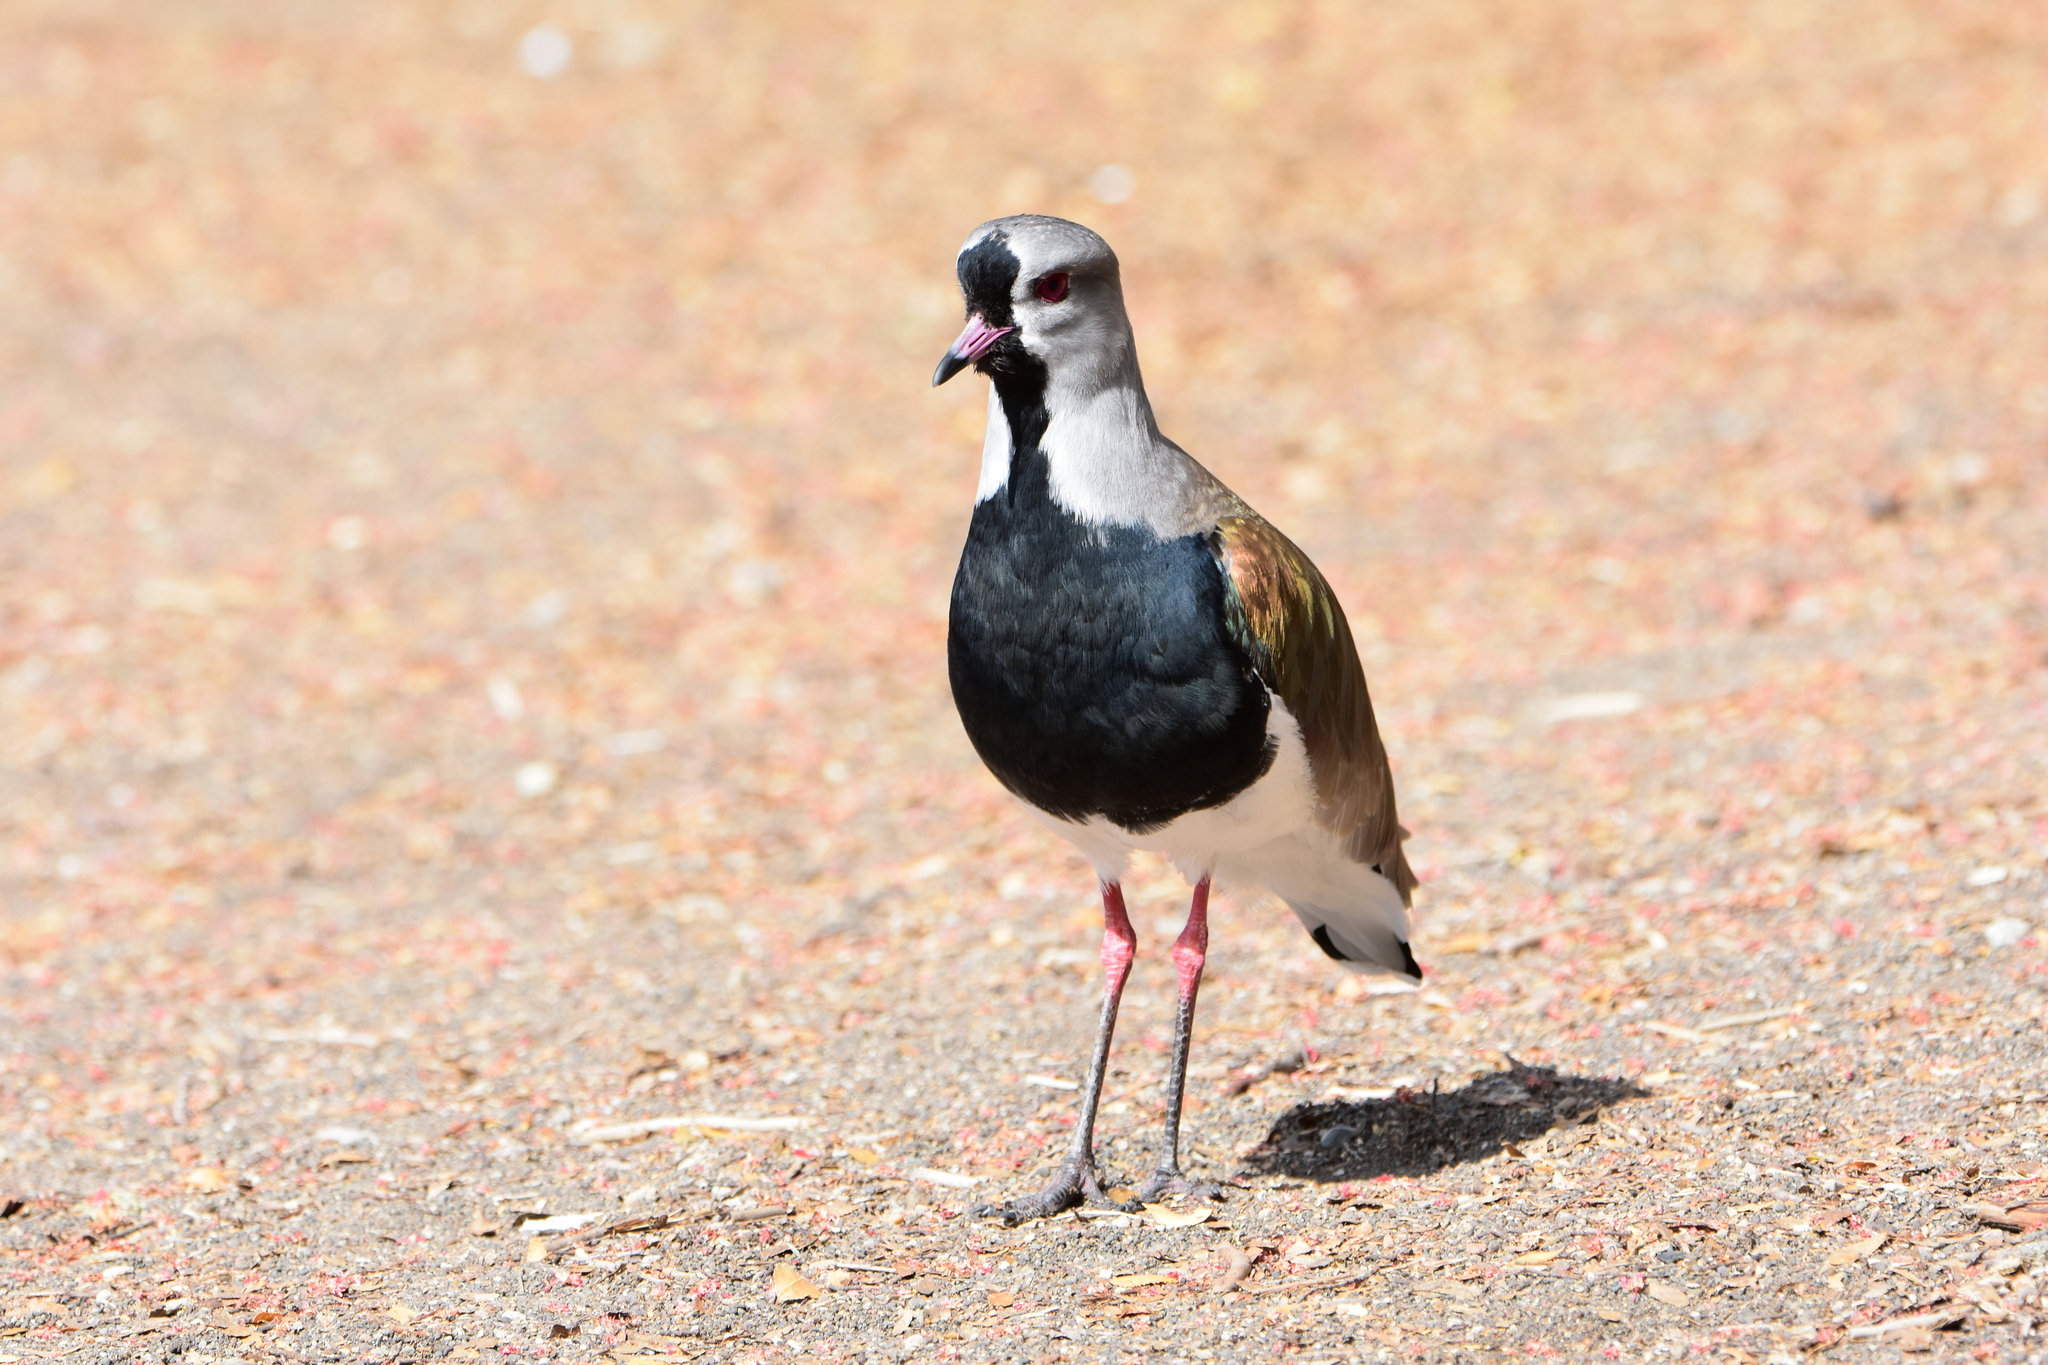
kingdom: Animalia
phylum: Chordata
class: Aves
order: Charadriiformes
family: Charadriidae
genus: Vanellus
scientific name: Vanellus chilensis
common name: Southern lapwing
